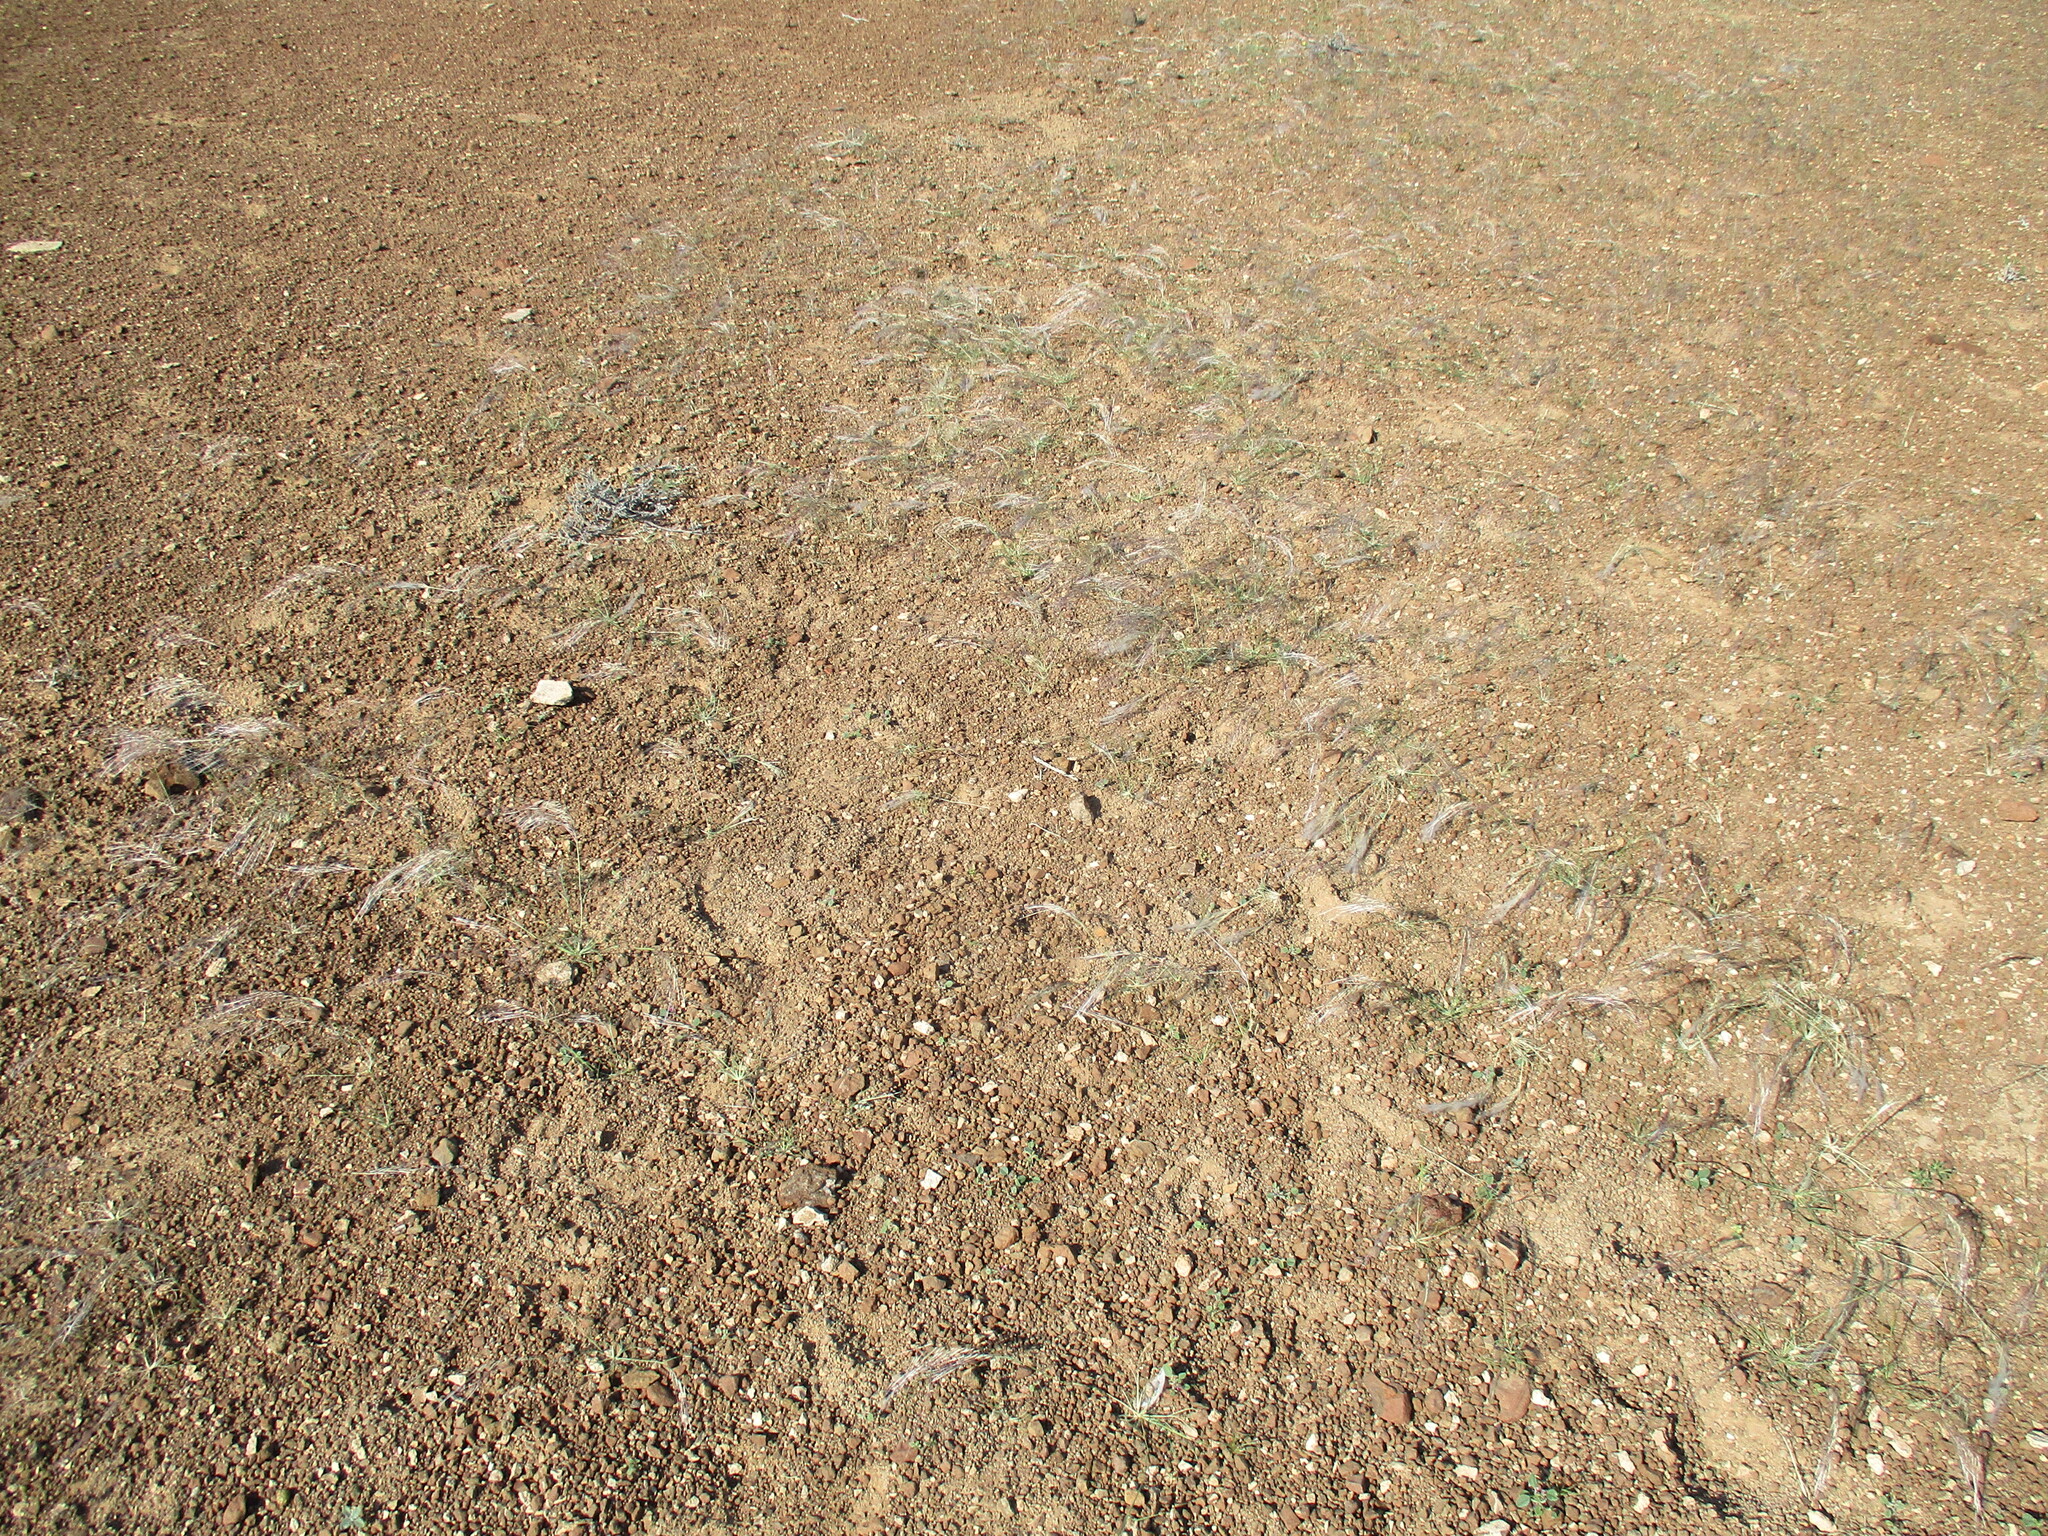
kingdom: Plantae
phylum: Tracheophyta
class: Liliopsida
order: Poales
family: Poaceae
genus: Stipagrostis
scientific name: Stipagrostis hirtigluma
